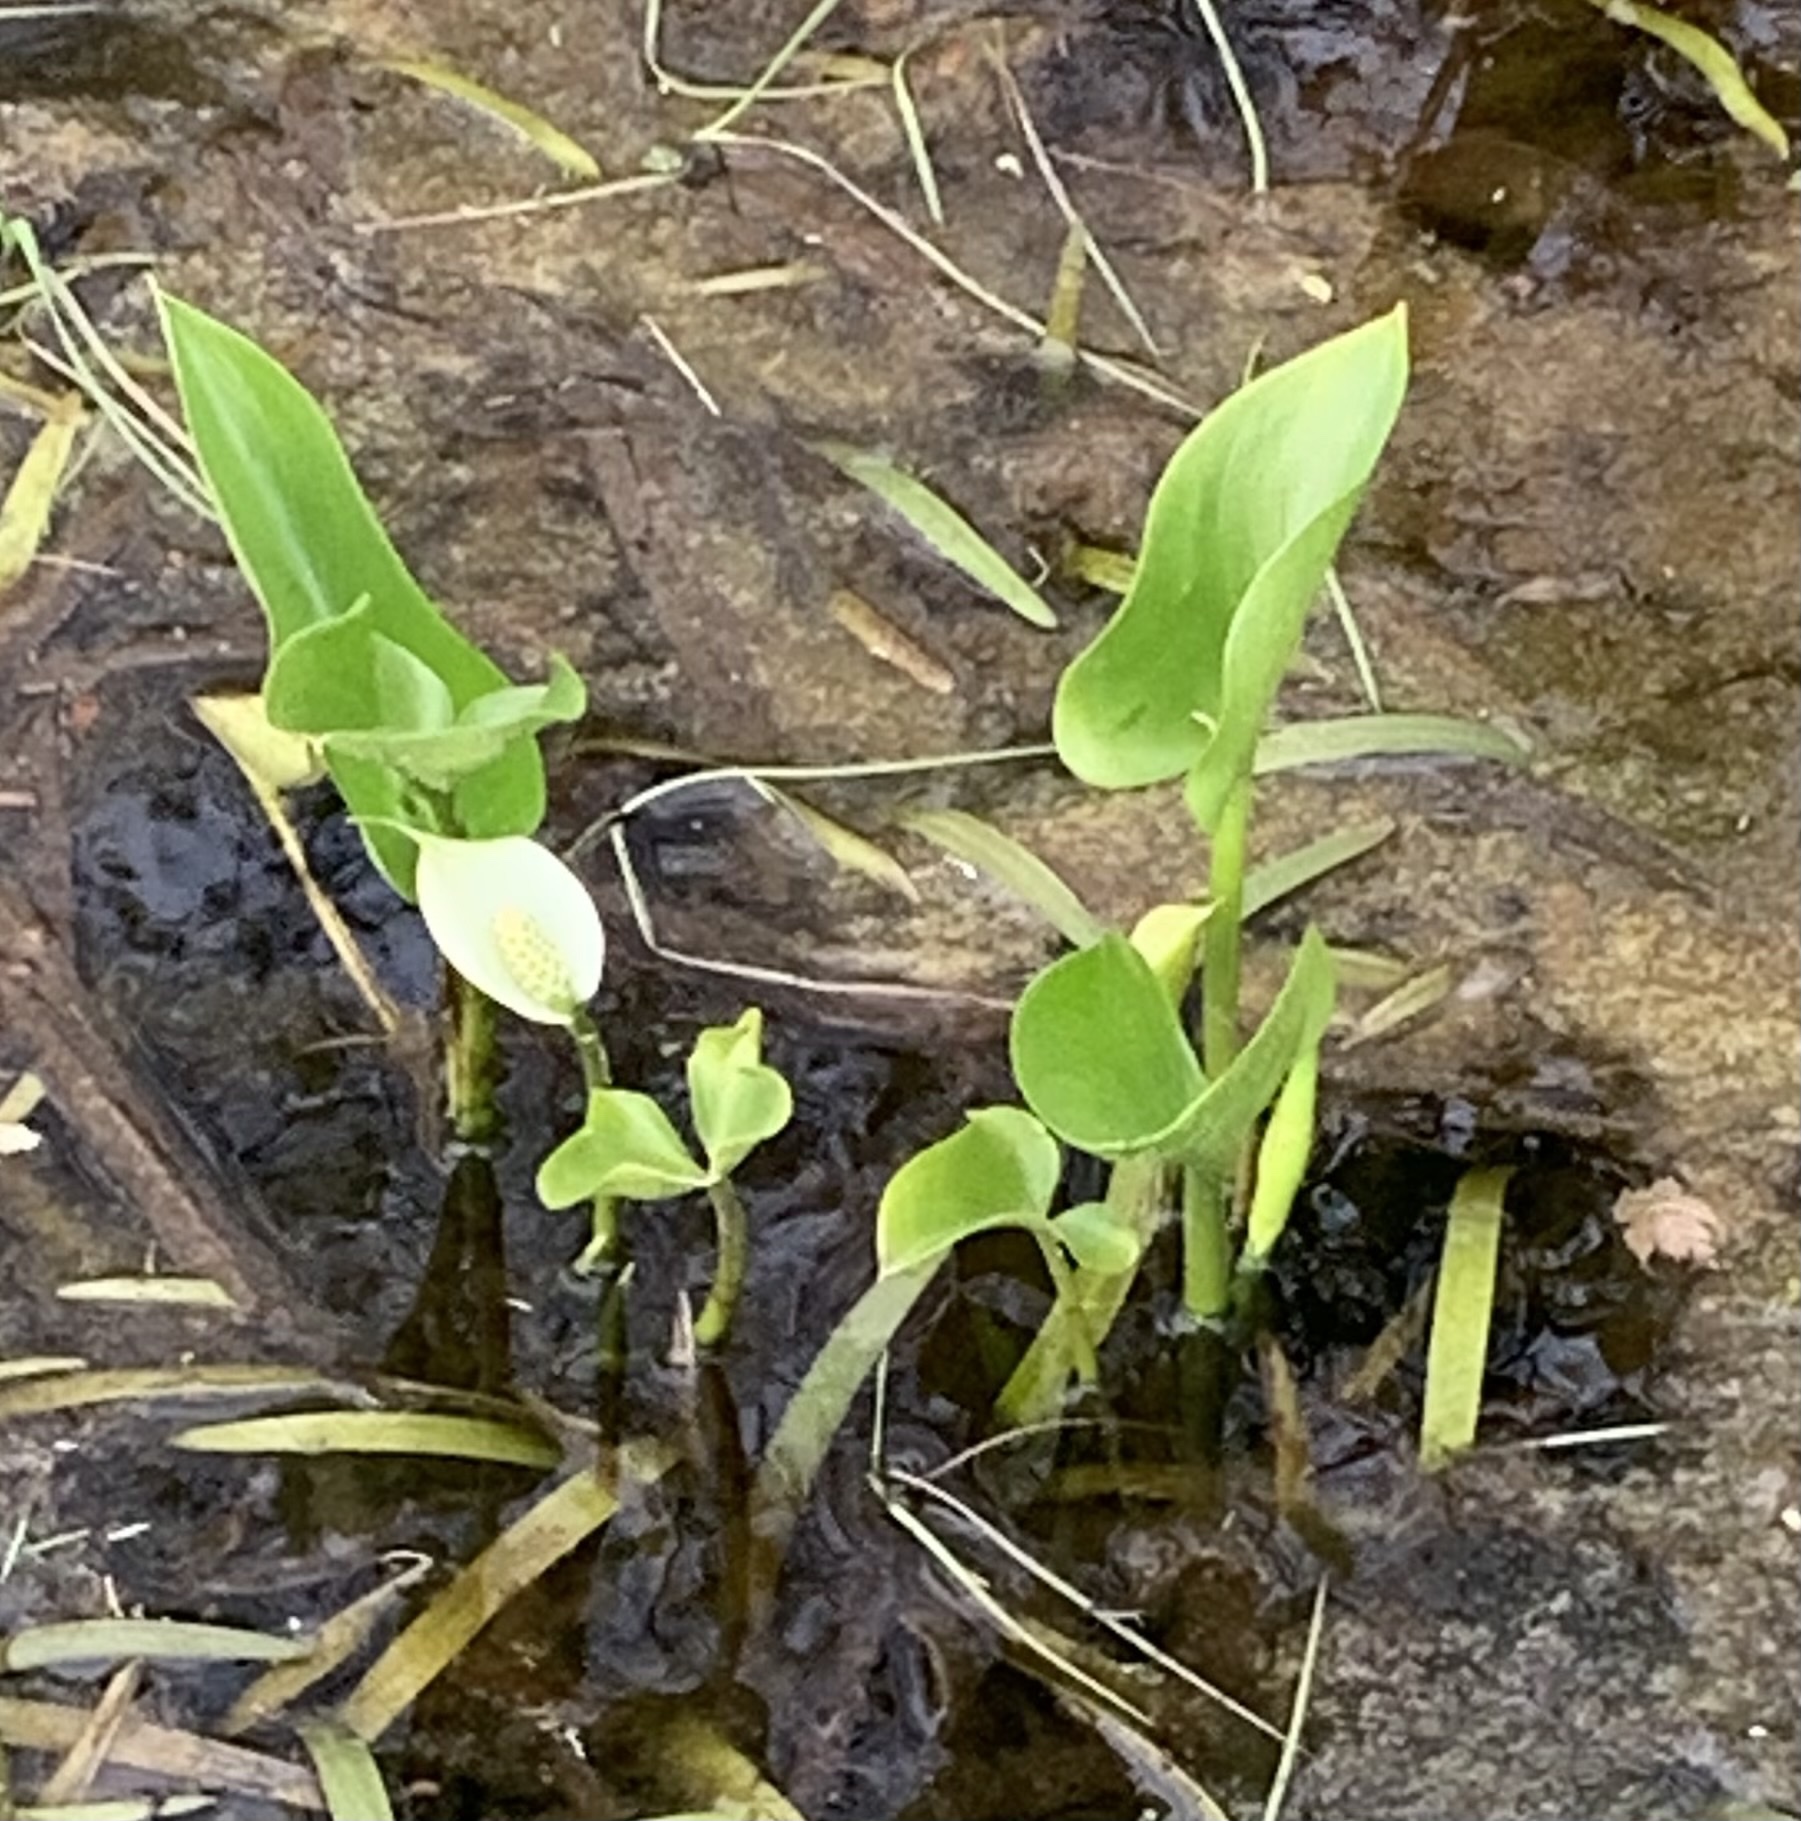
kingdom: Plantae
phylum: Tracheophyta
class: Liliopsida
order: Alismatales
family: Araceae
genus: Calla
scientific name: Calla palustris
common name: Bog arum
